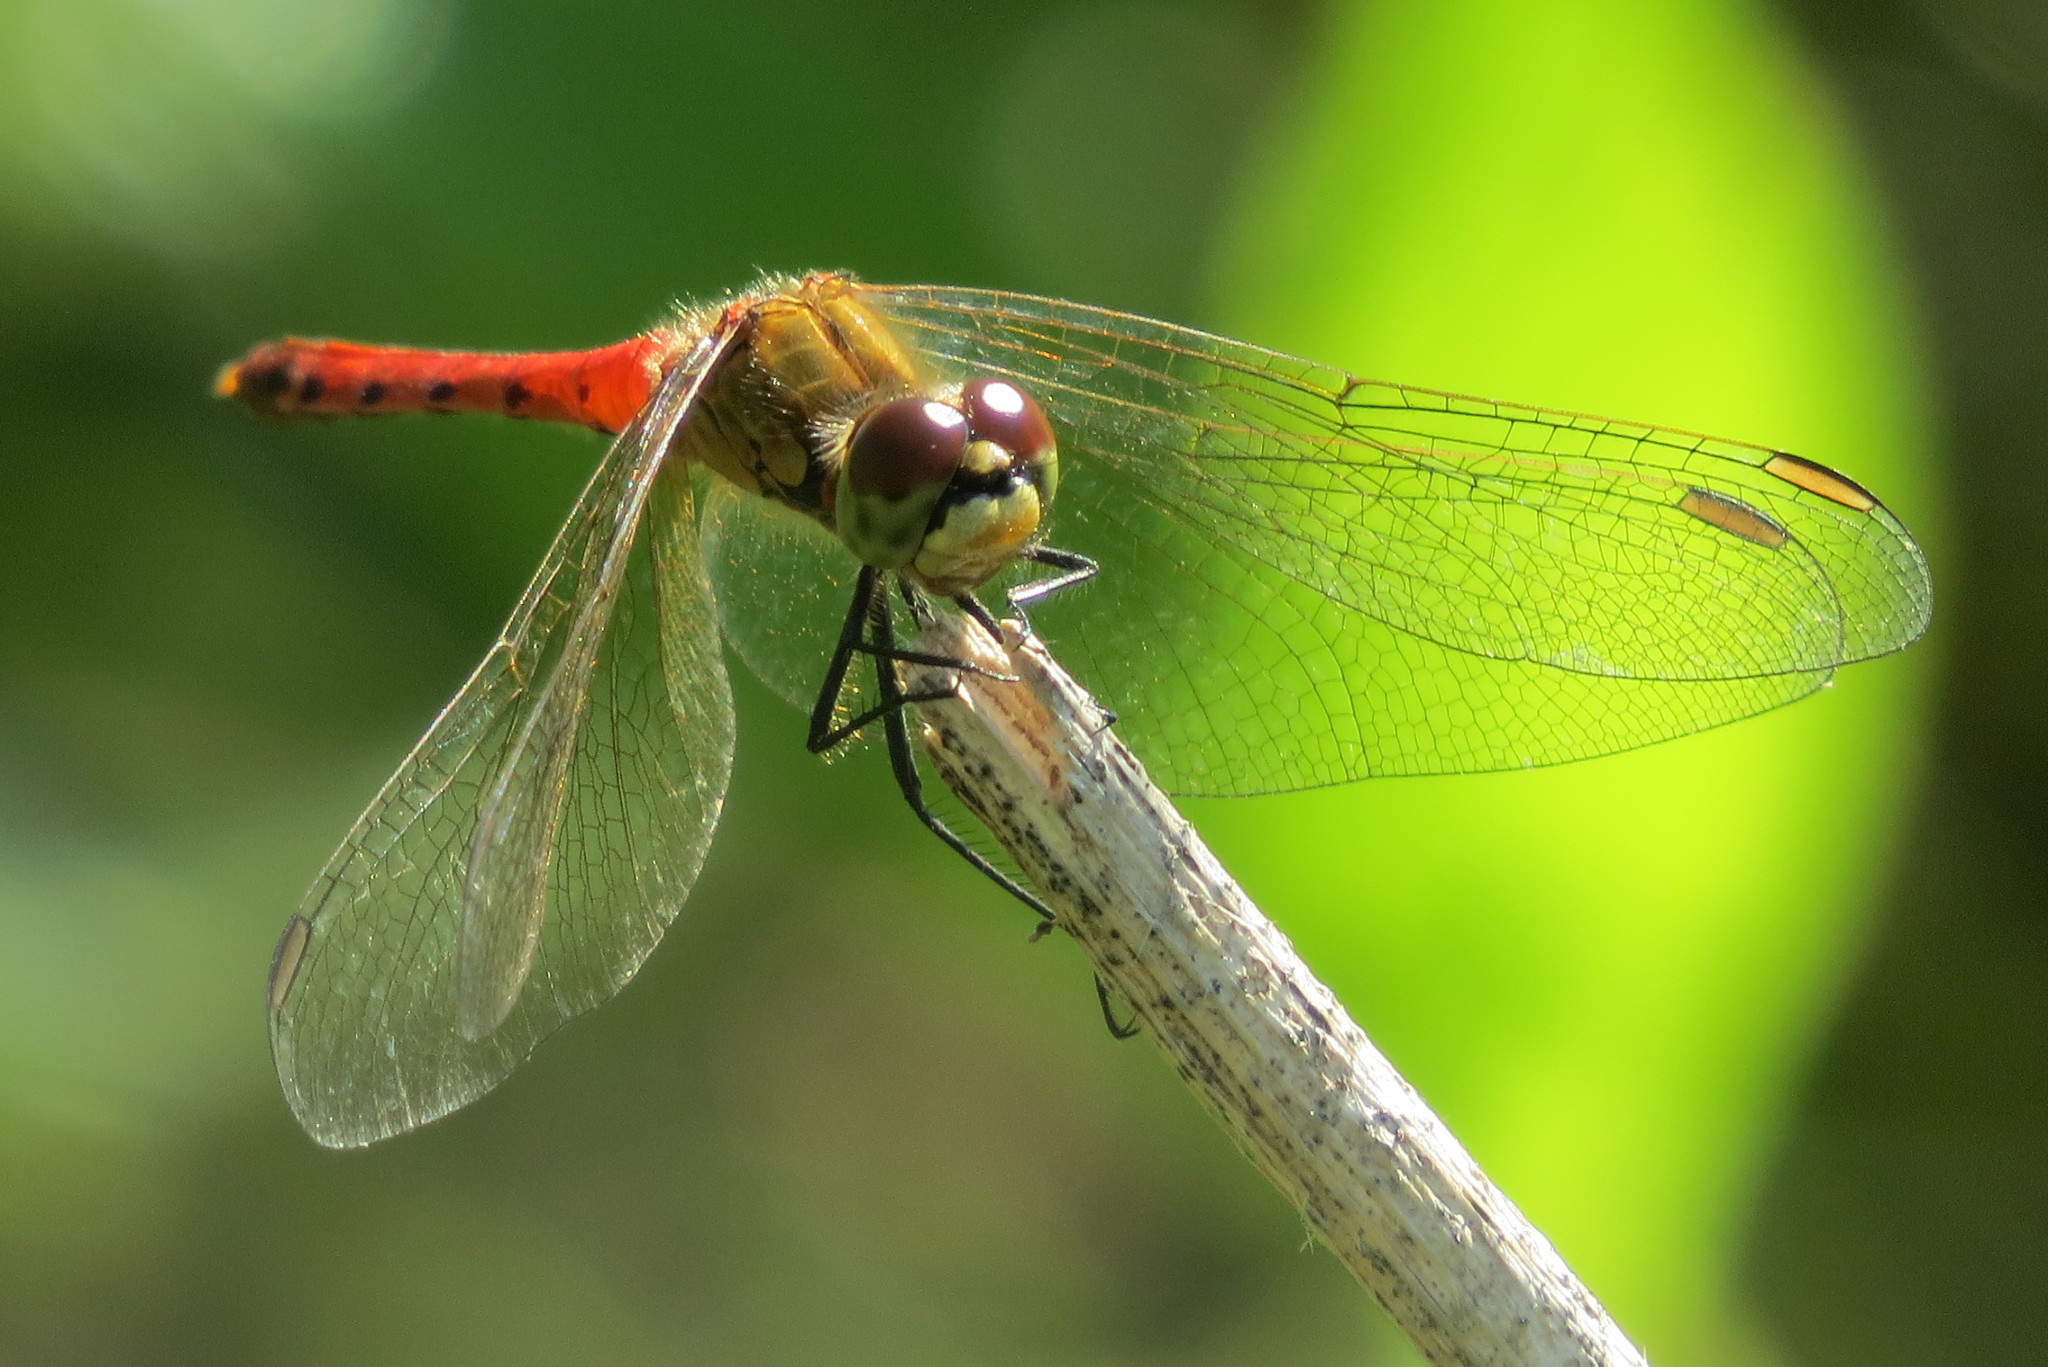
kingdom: Animalia
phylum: Arthropoda
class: Insecta
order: Odonata
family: Libellulidae
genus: Sympetrum
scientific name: Sympetrum depressiusculum
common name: Spotted darter
